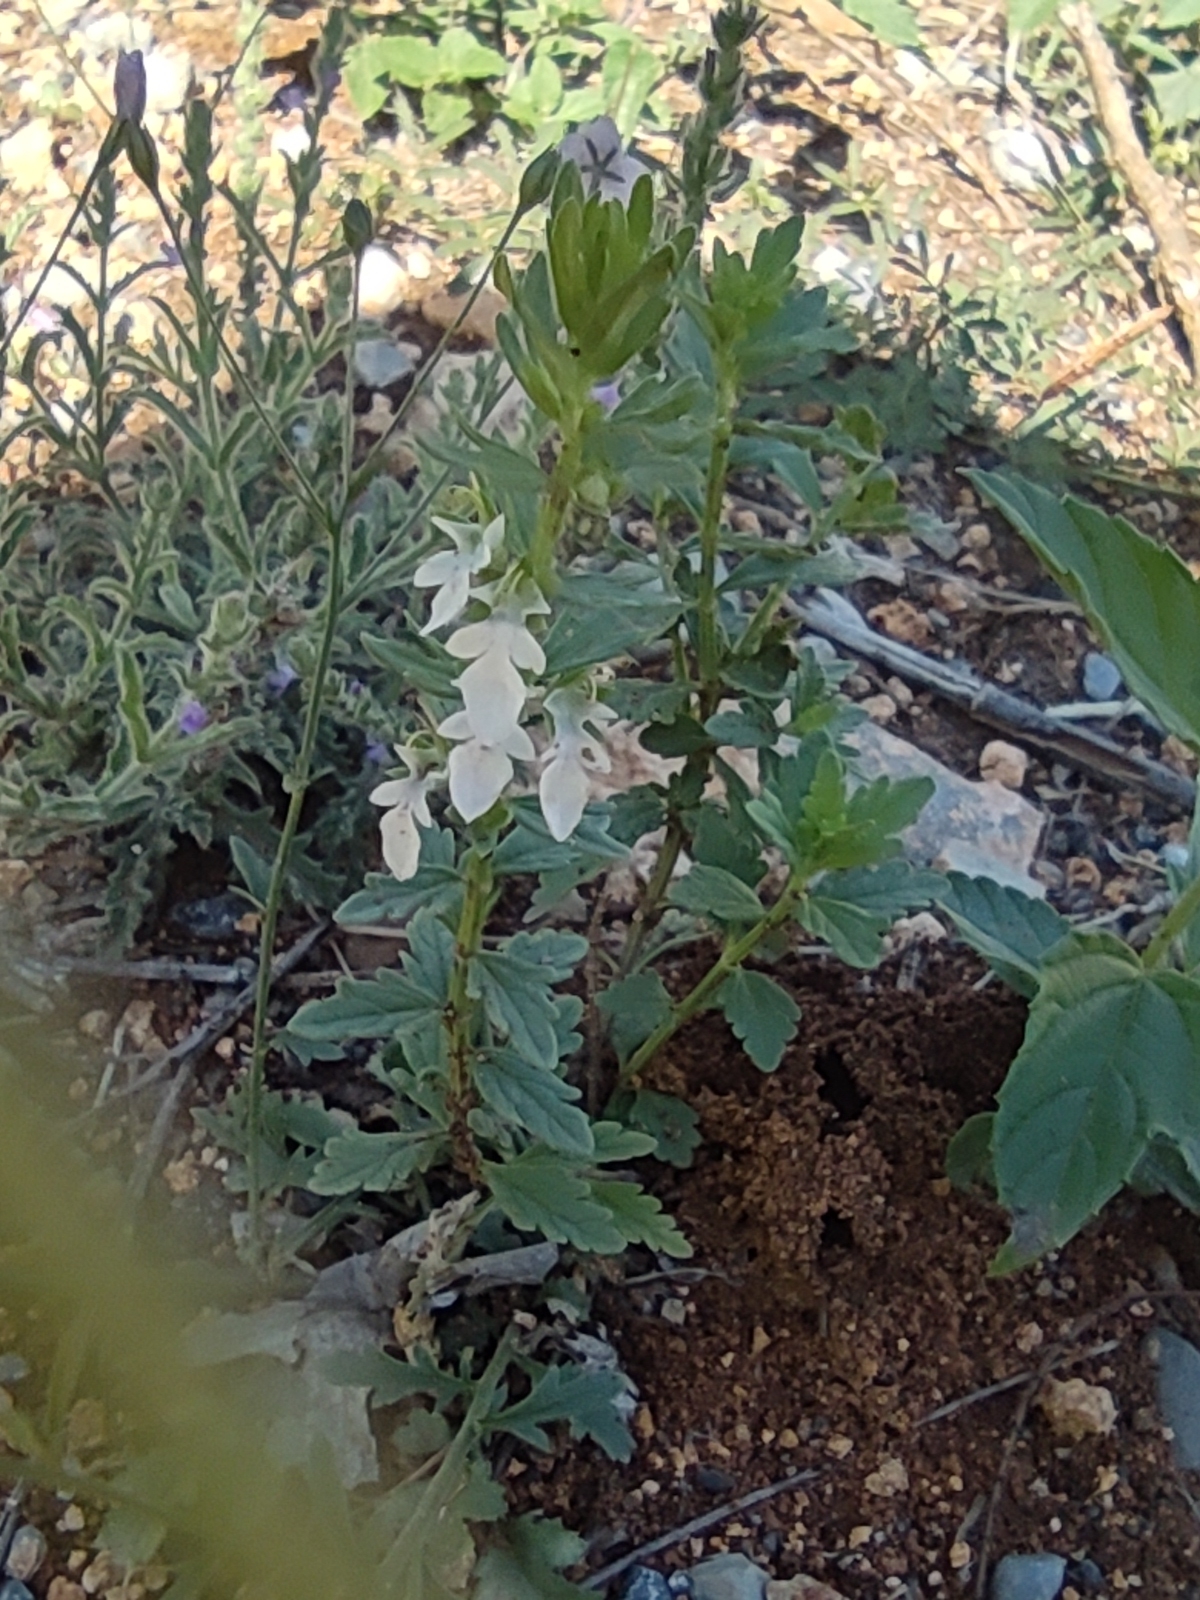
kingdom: Plantae
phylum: Tracheophyta
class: Magnoliopsida
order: Lamiales
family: Lamiaceae
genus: Teucrium
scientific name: Teucrium cubense
